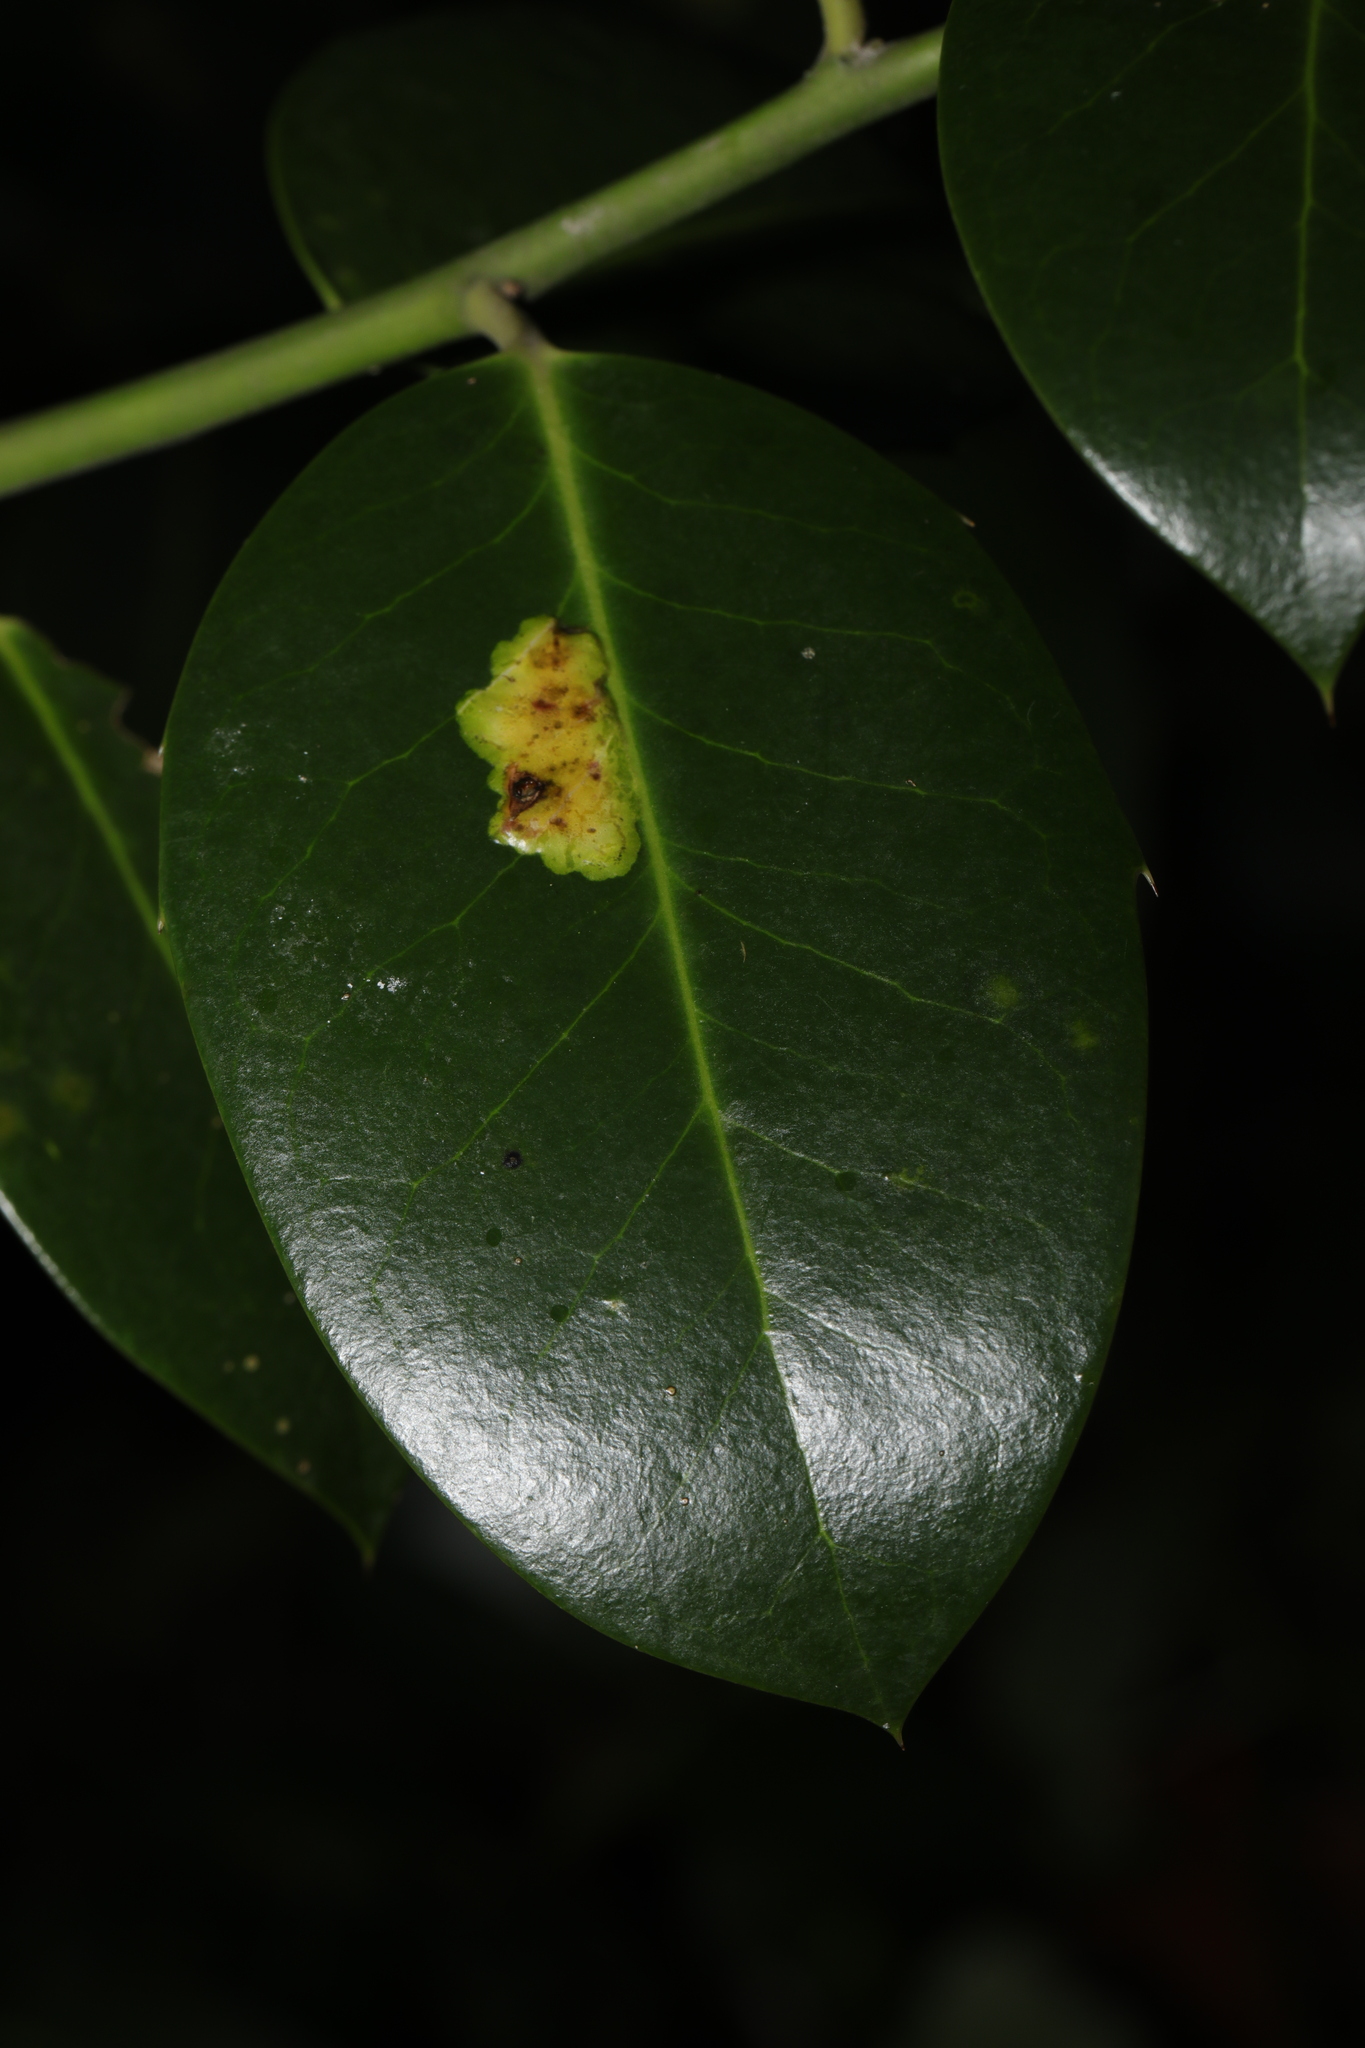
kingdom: Animalia
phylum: Arthropoda
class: Insecta
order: Diptera
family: Agromyzidae
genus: Phytomyza
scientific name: Phytomyza ilicis
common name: Holly leafminer
